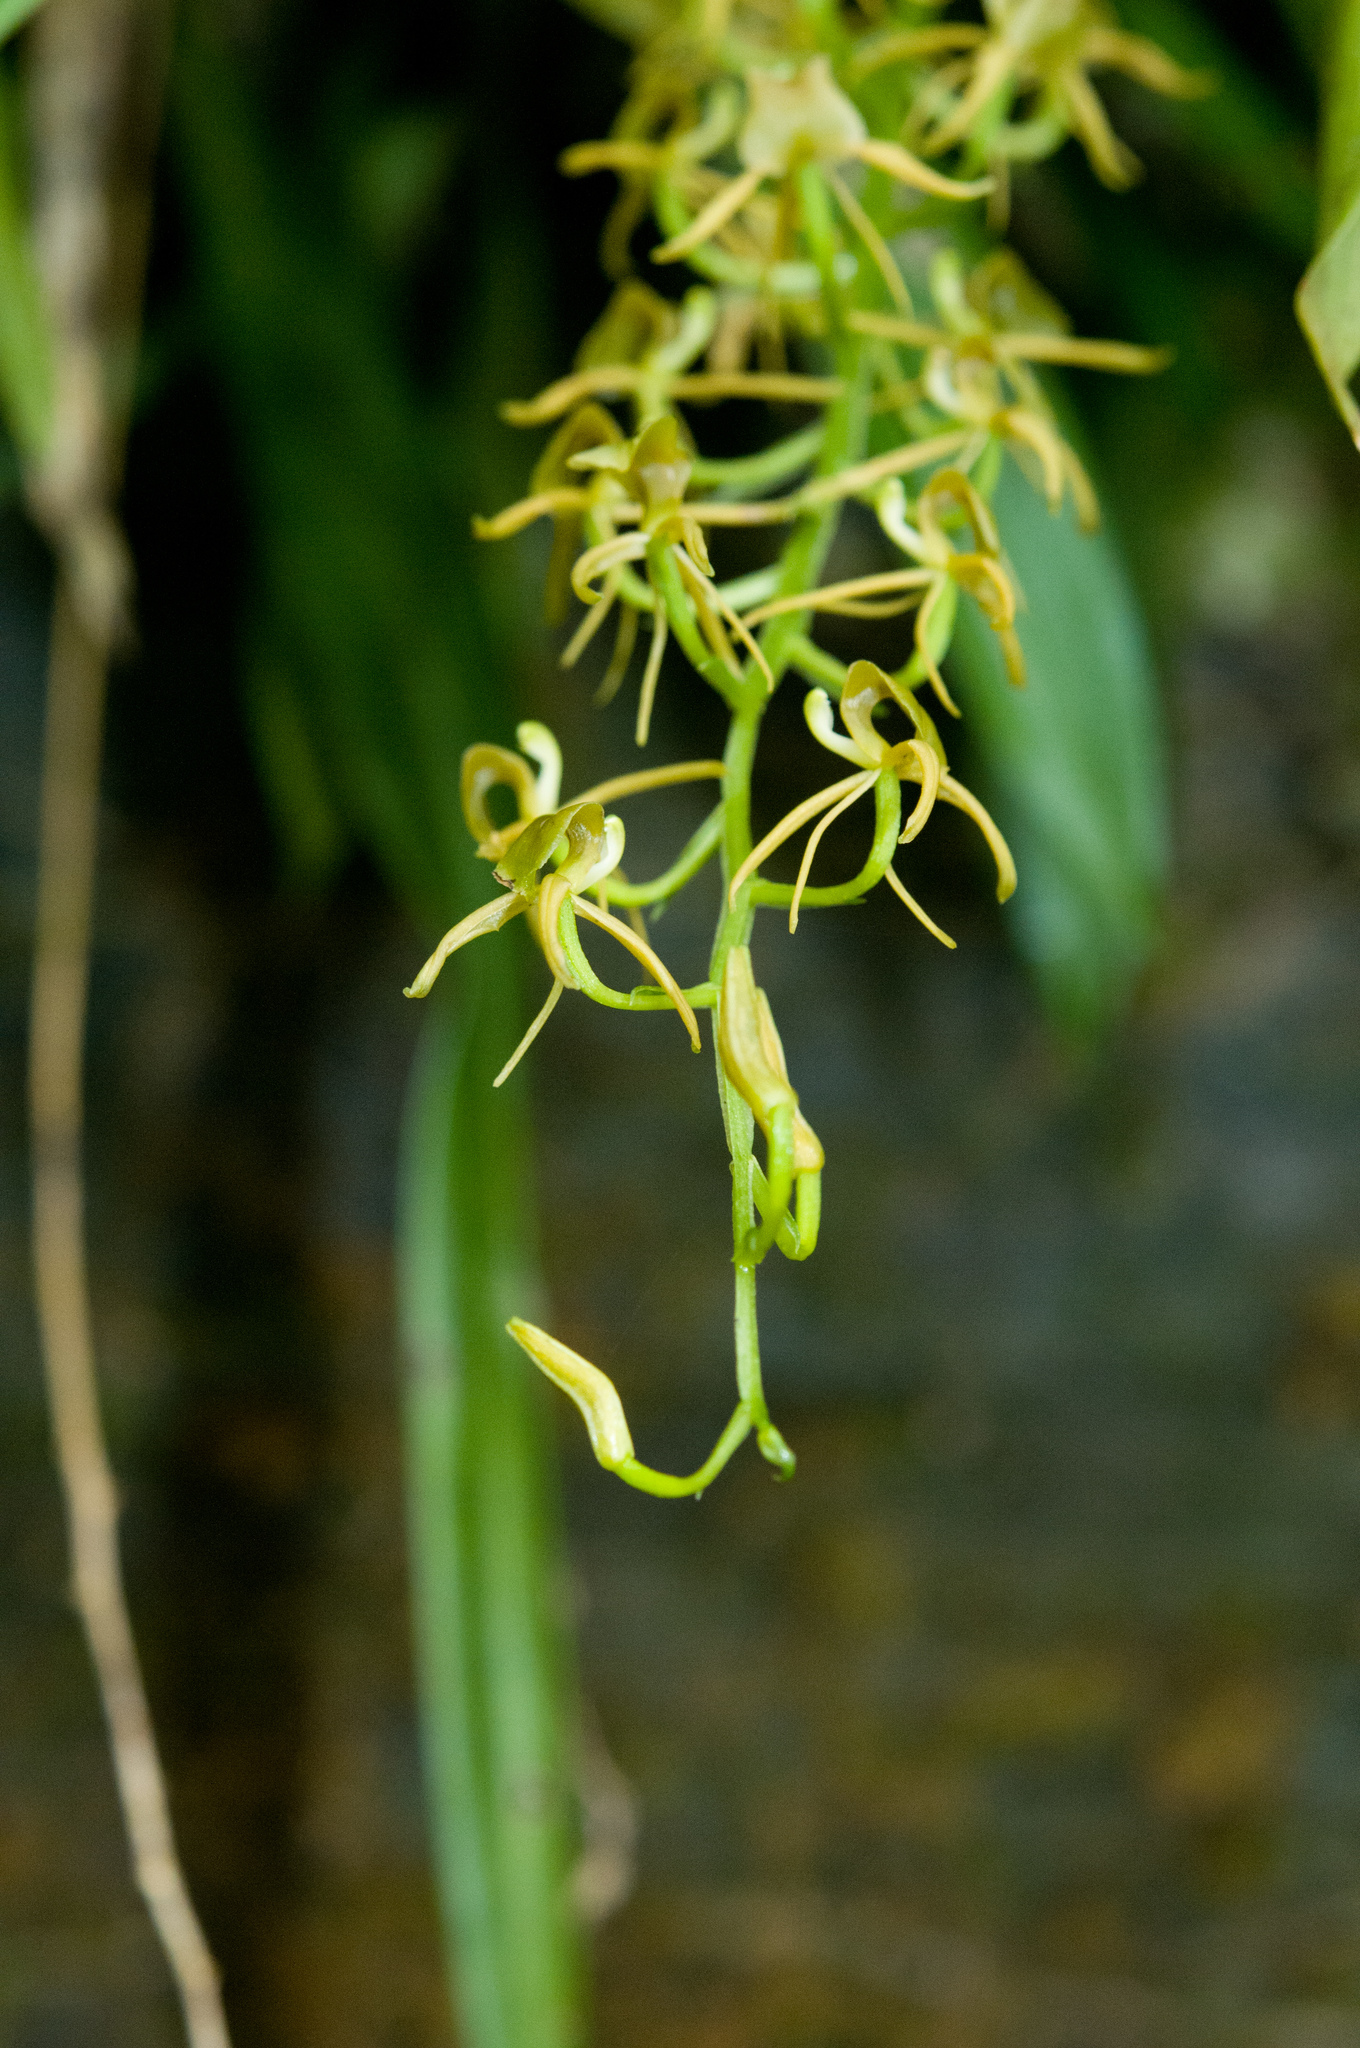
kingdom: Plantae
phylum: Tracheophyta
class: Liliopsida
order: Asparagales
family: Orchidaceae
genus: Liparis
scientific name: Liparis nakaharae
